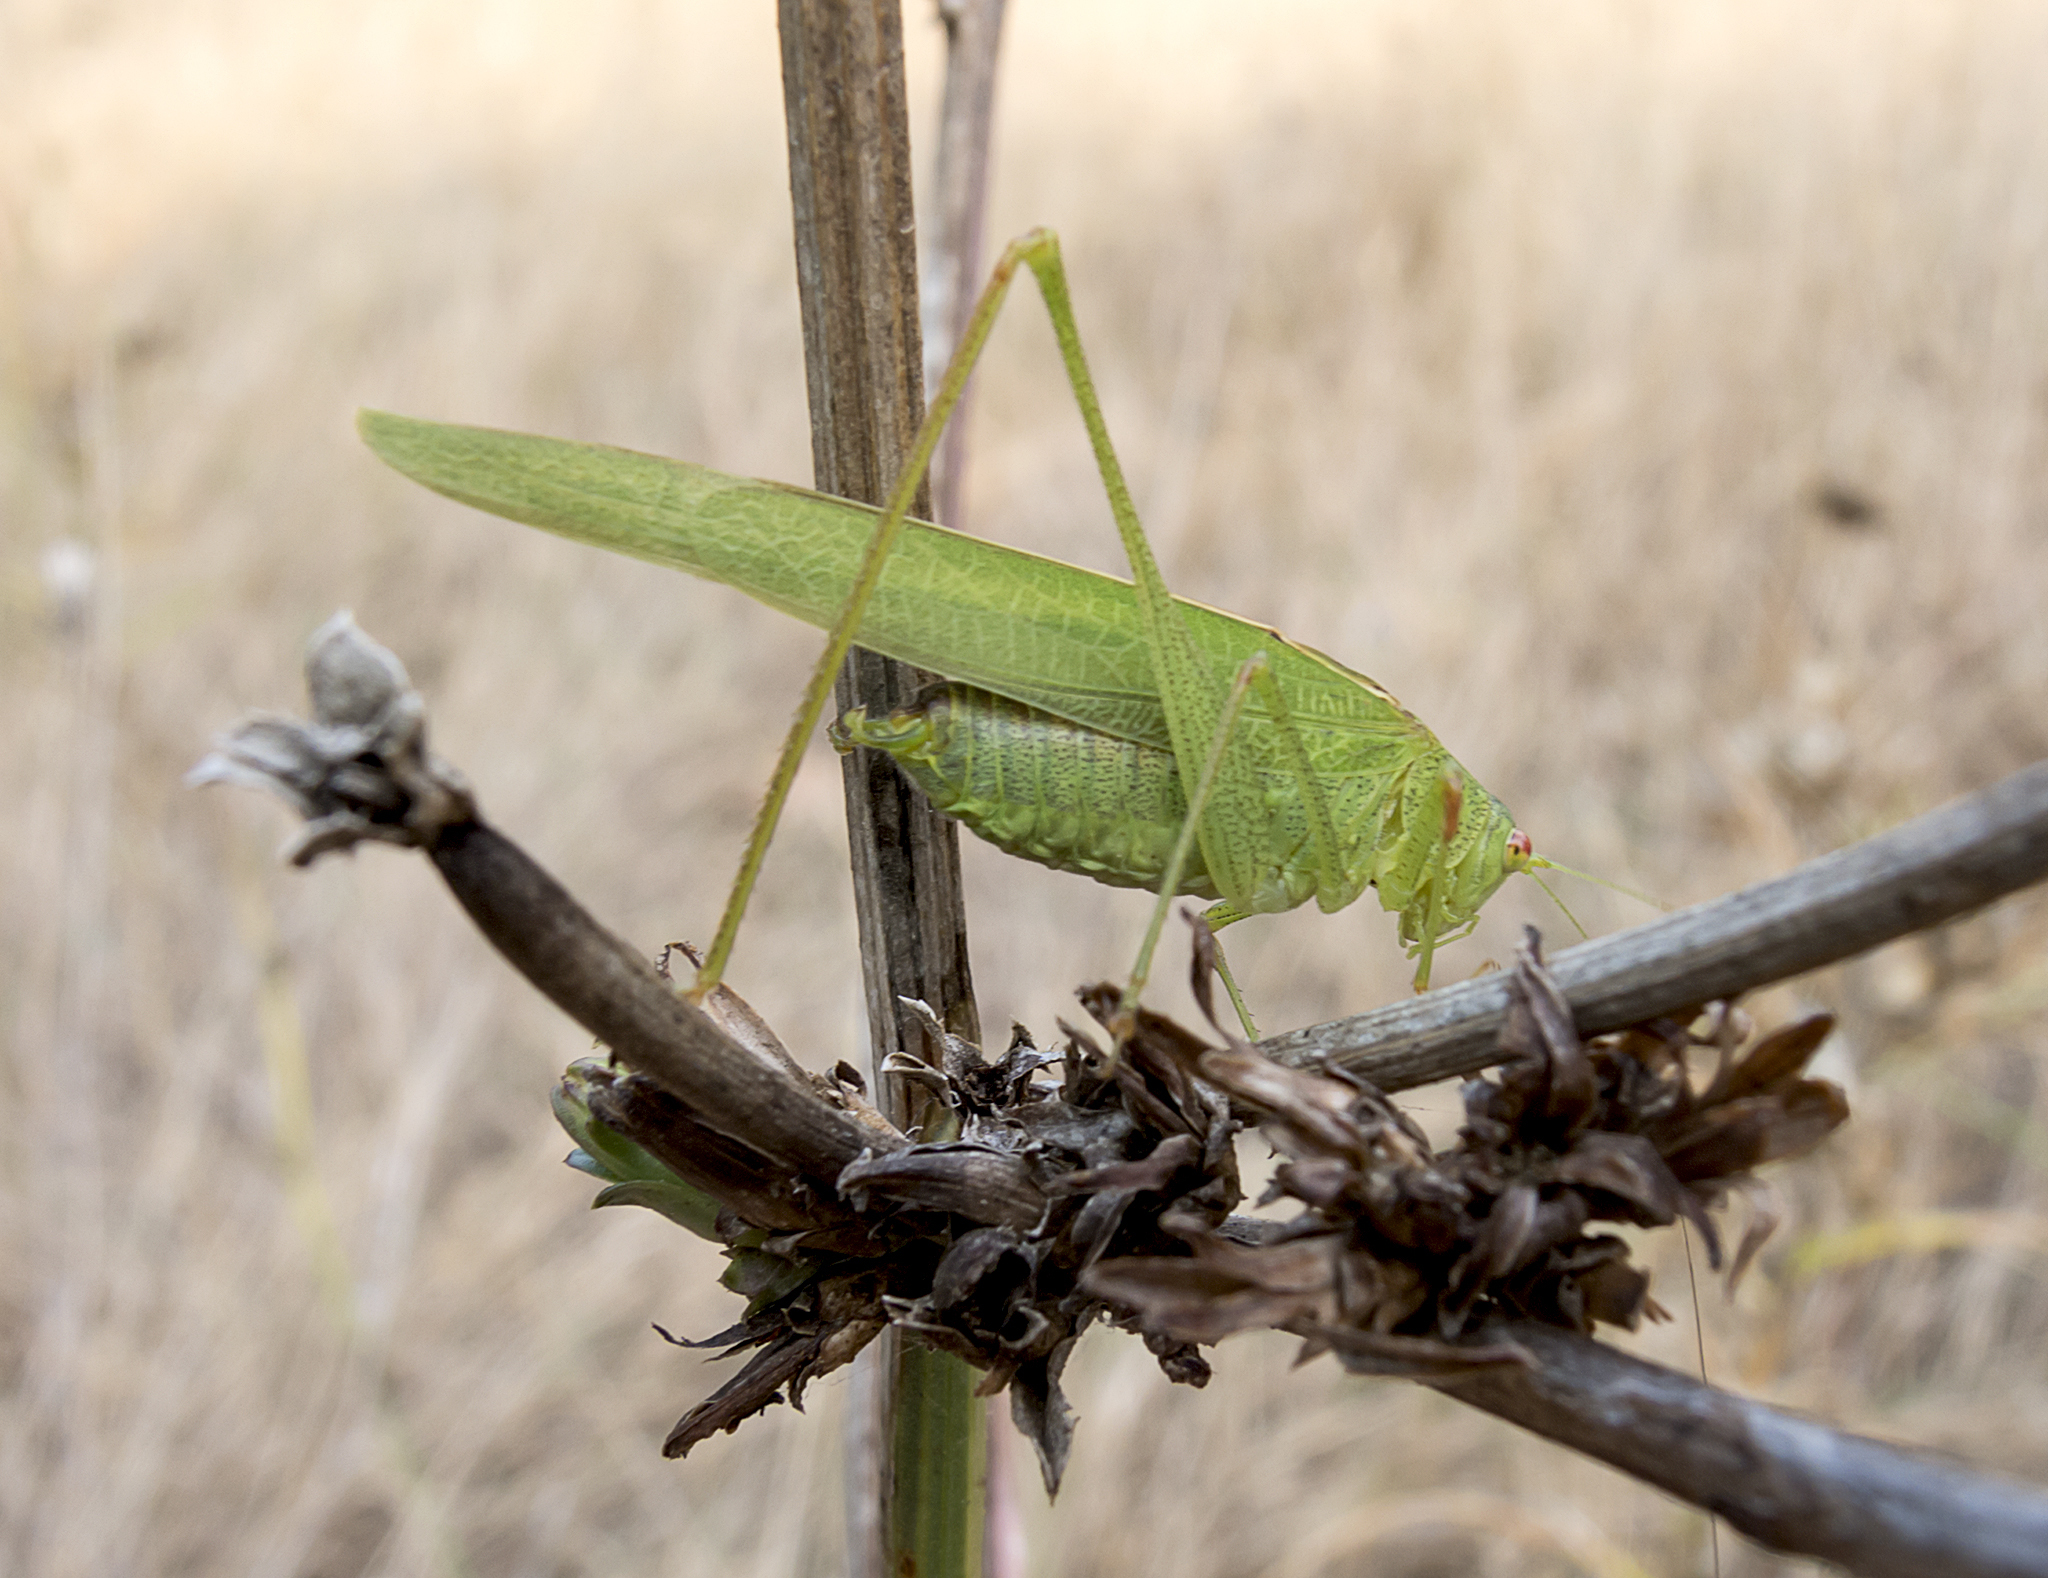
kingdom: Animalia
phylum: Arthropoda
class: Insecta
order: Orthoptera
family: Tettigoniidae
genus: Phaneroptera
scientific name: Phaneroptera nana
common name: Southern sickle bush-cricket
